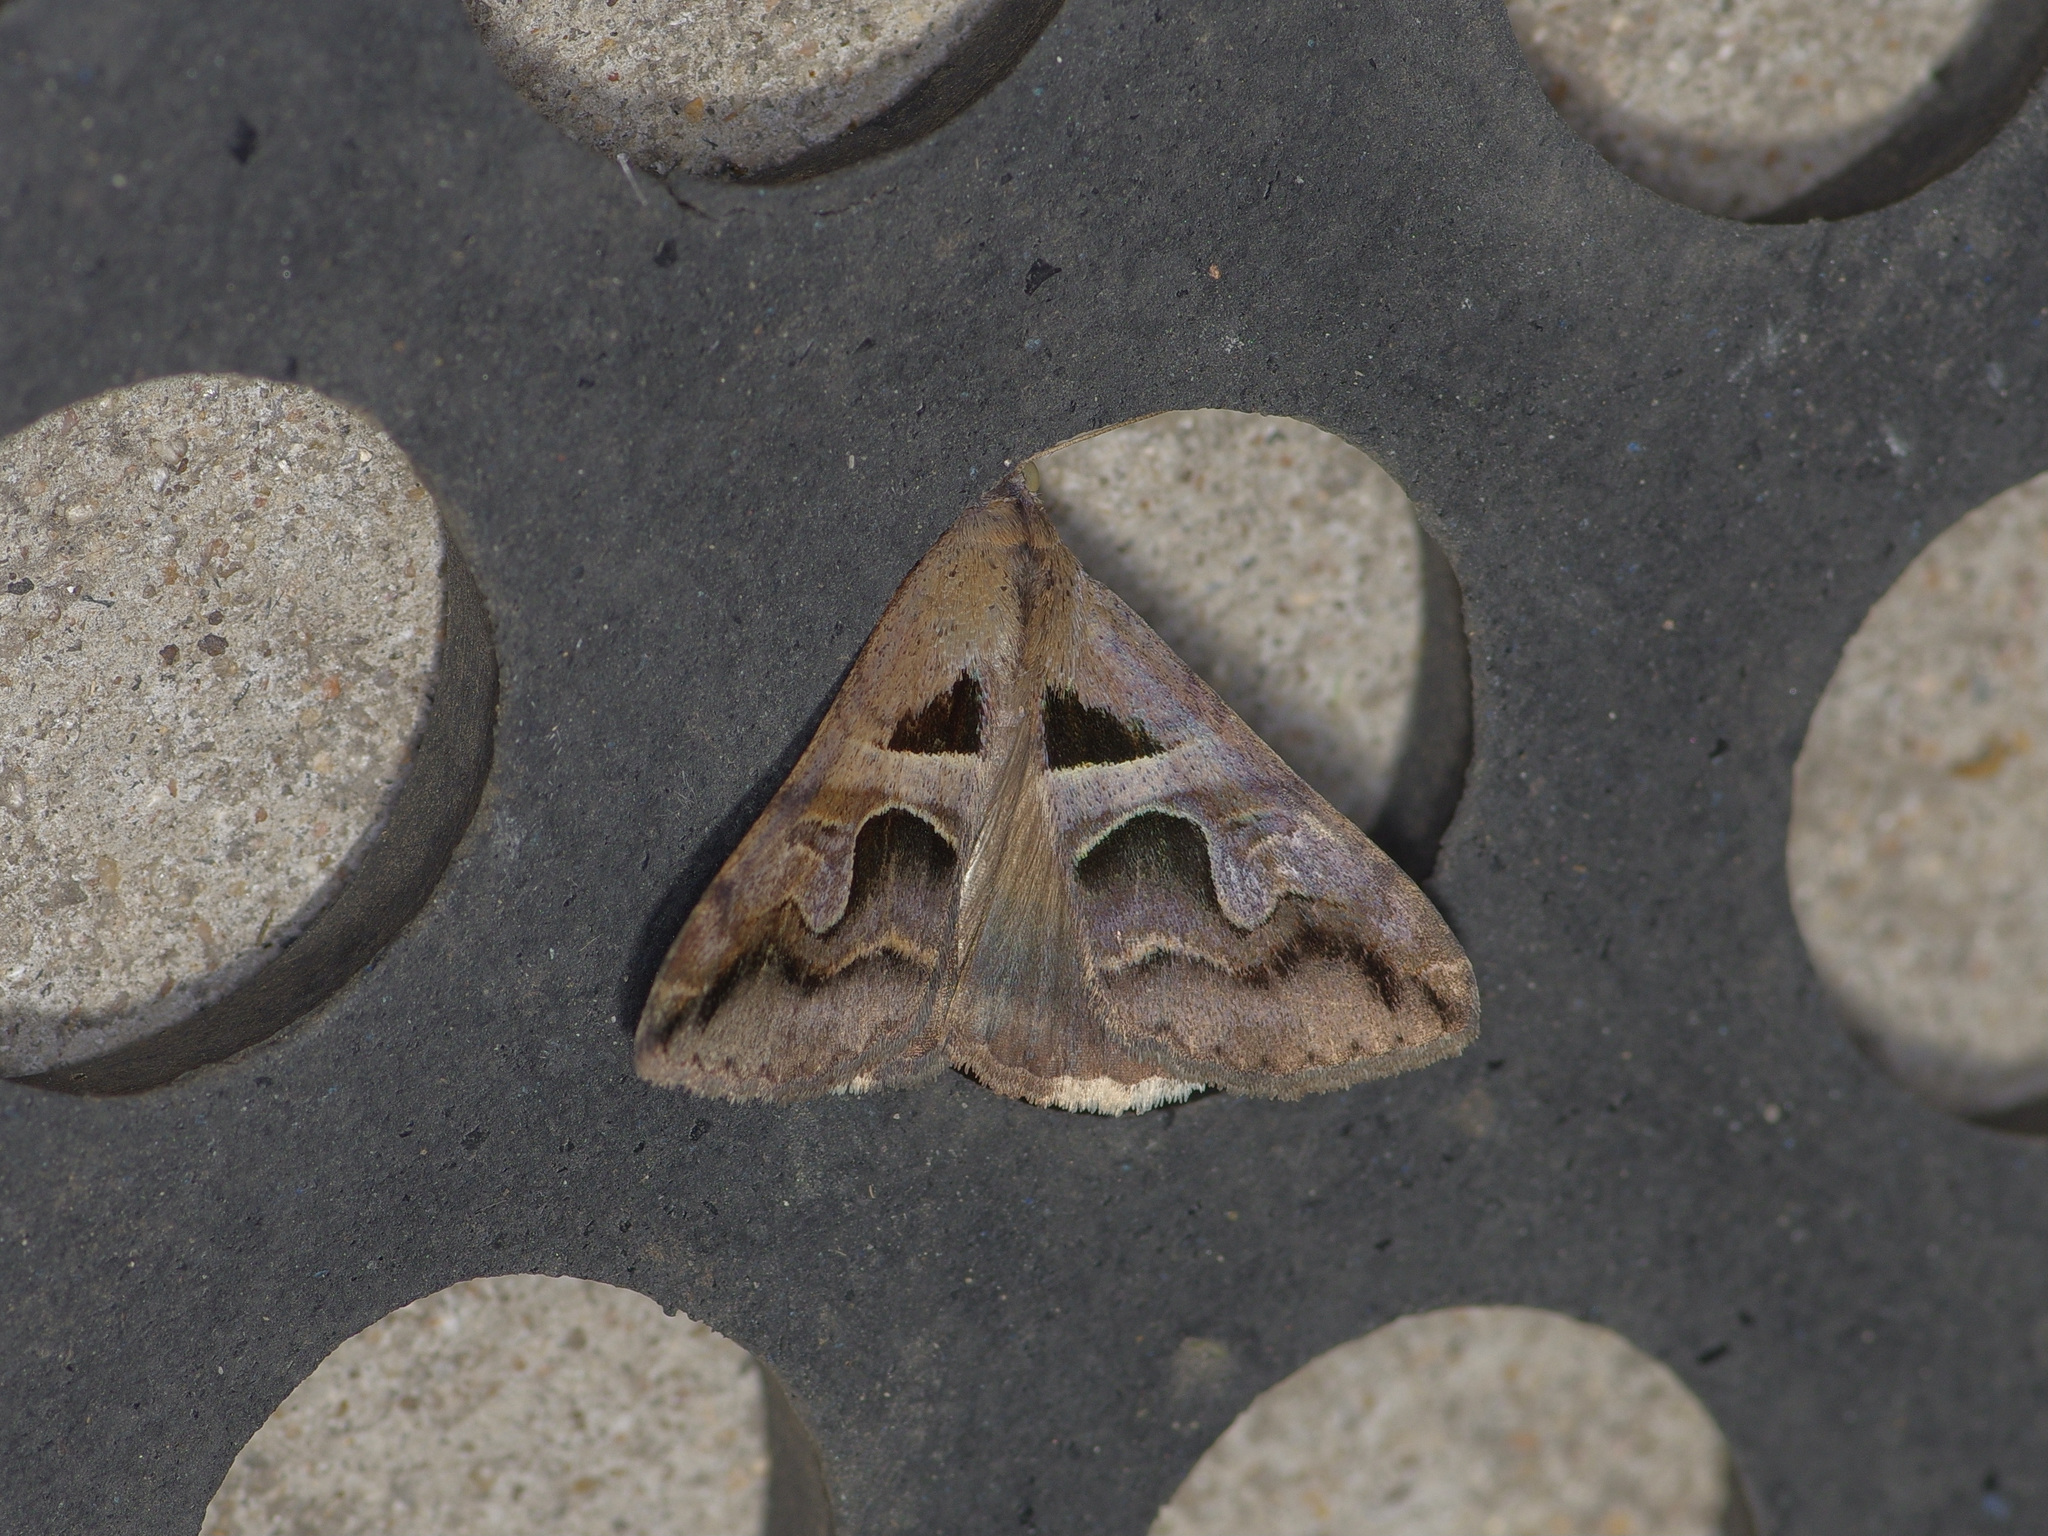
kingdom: Animalia
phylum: Arthropoda
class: Insecta
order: Lepidoptera
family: Erebidae
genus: Melipotis
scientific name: Melipotis cellaris
